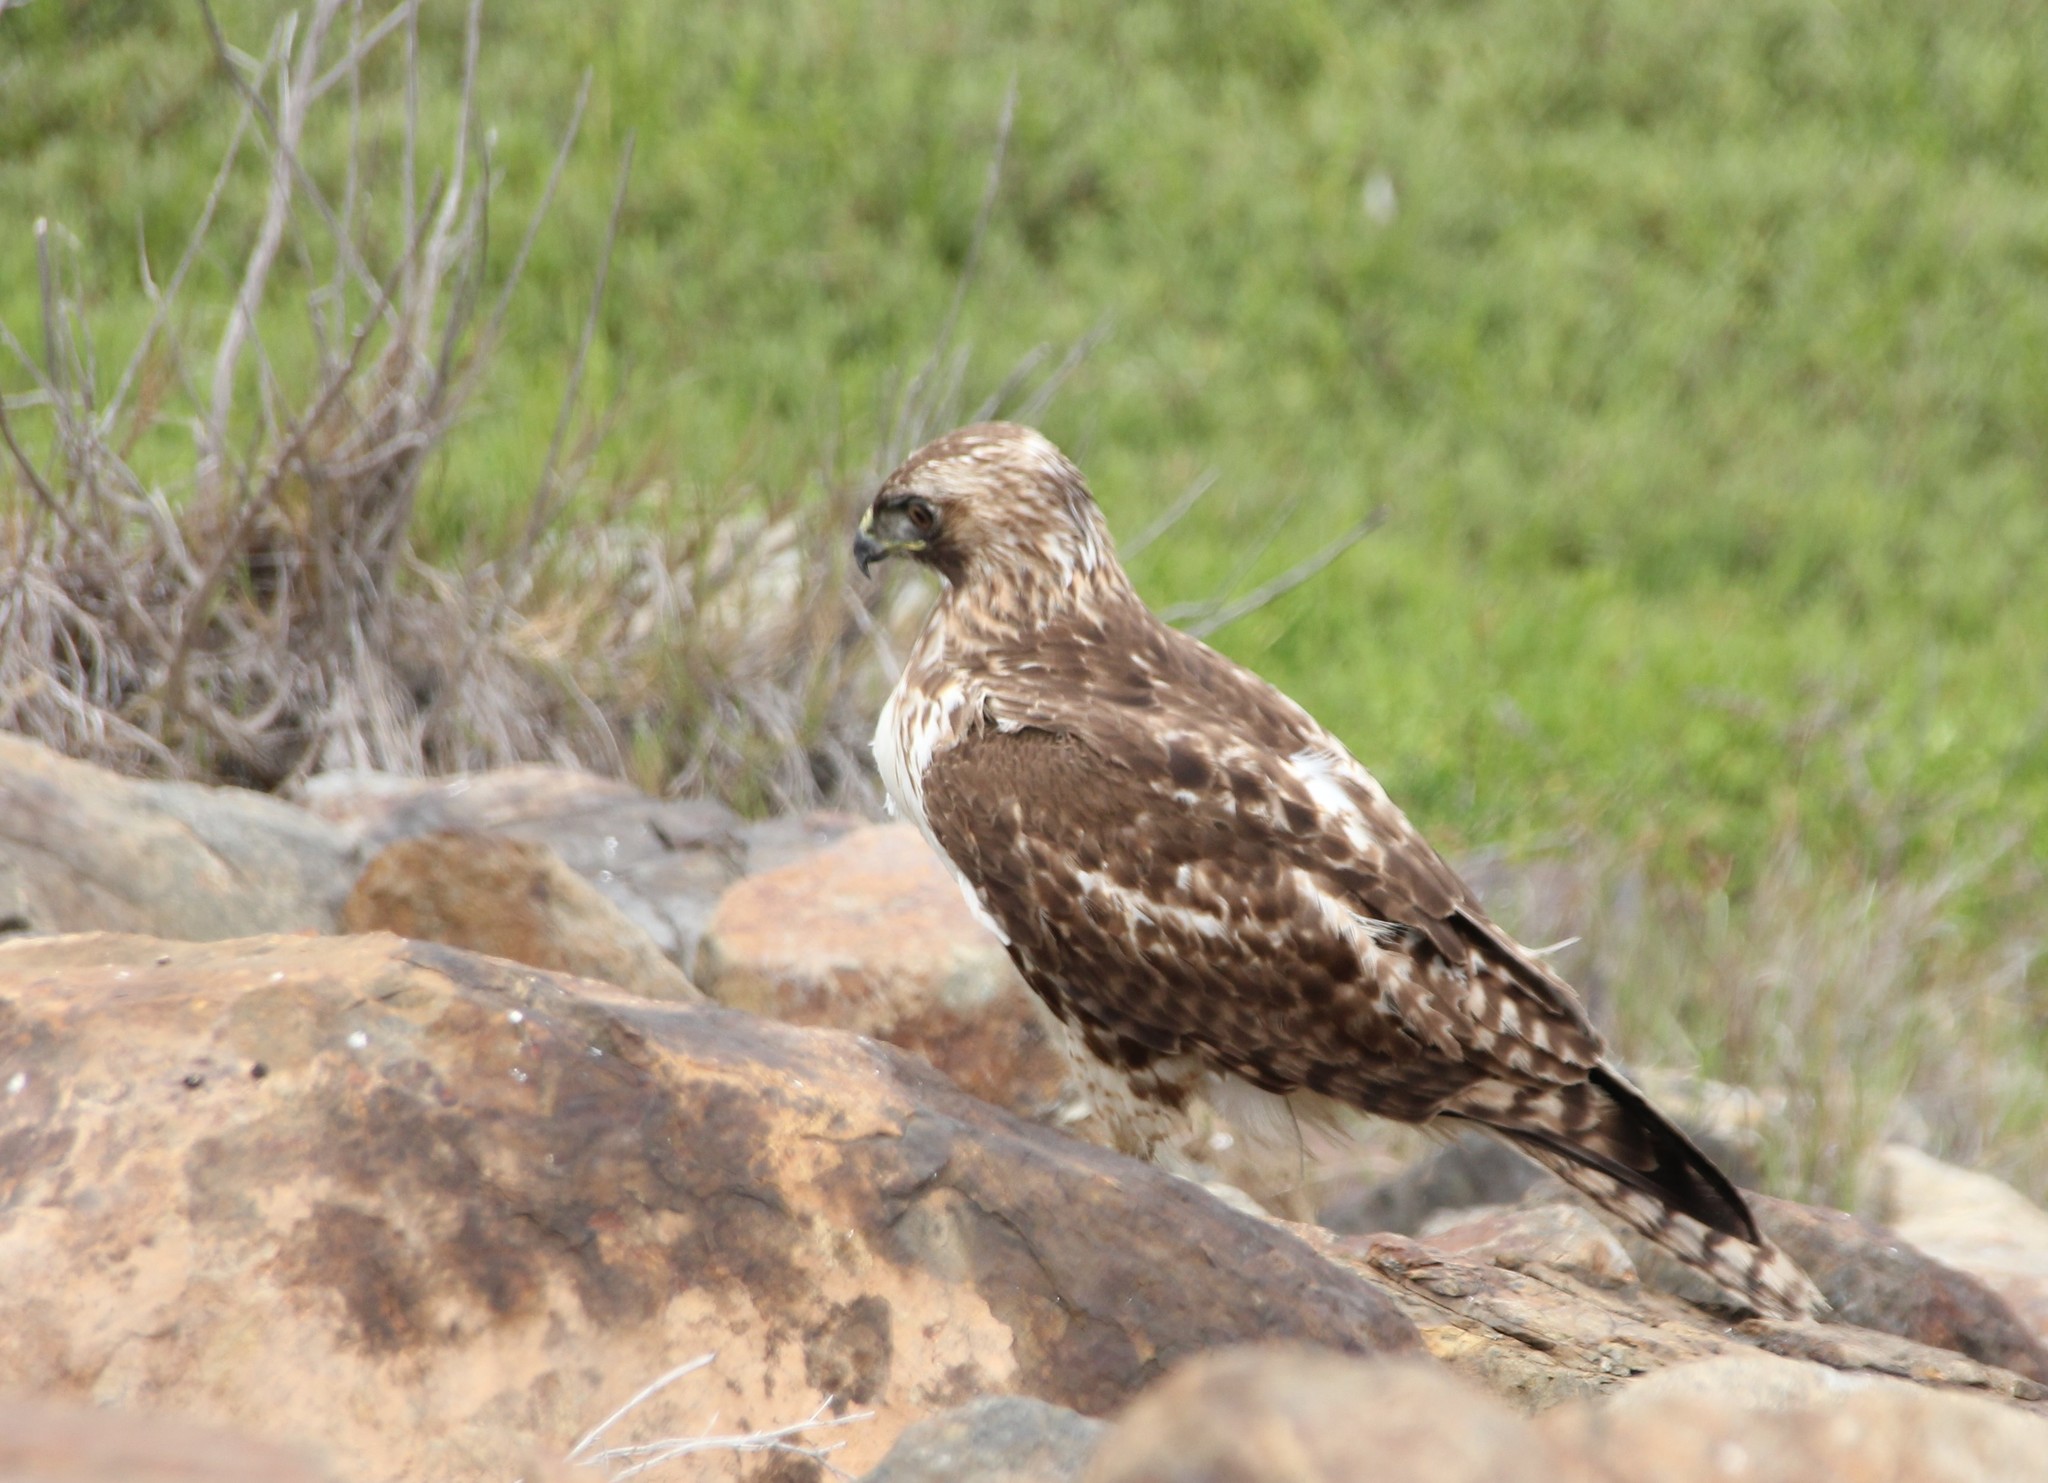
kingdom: Animalia
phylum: Chordata
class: Aves
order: Accipitriformes
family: Accipitridae
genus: Buteo
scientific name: Buteo jamaicensis
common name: Red-tailed hawk
